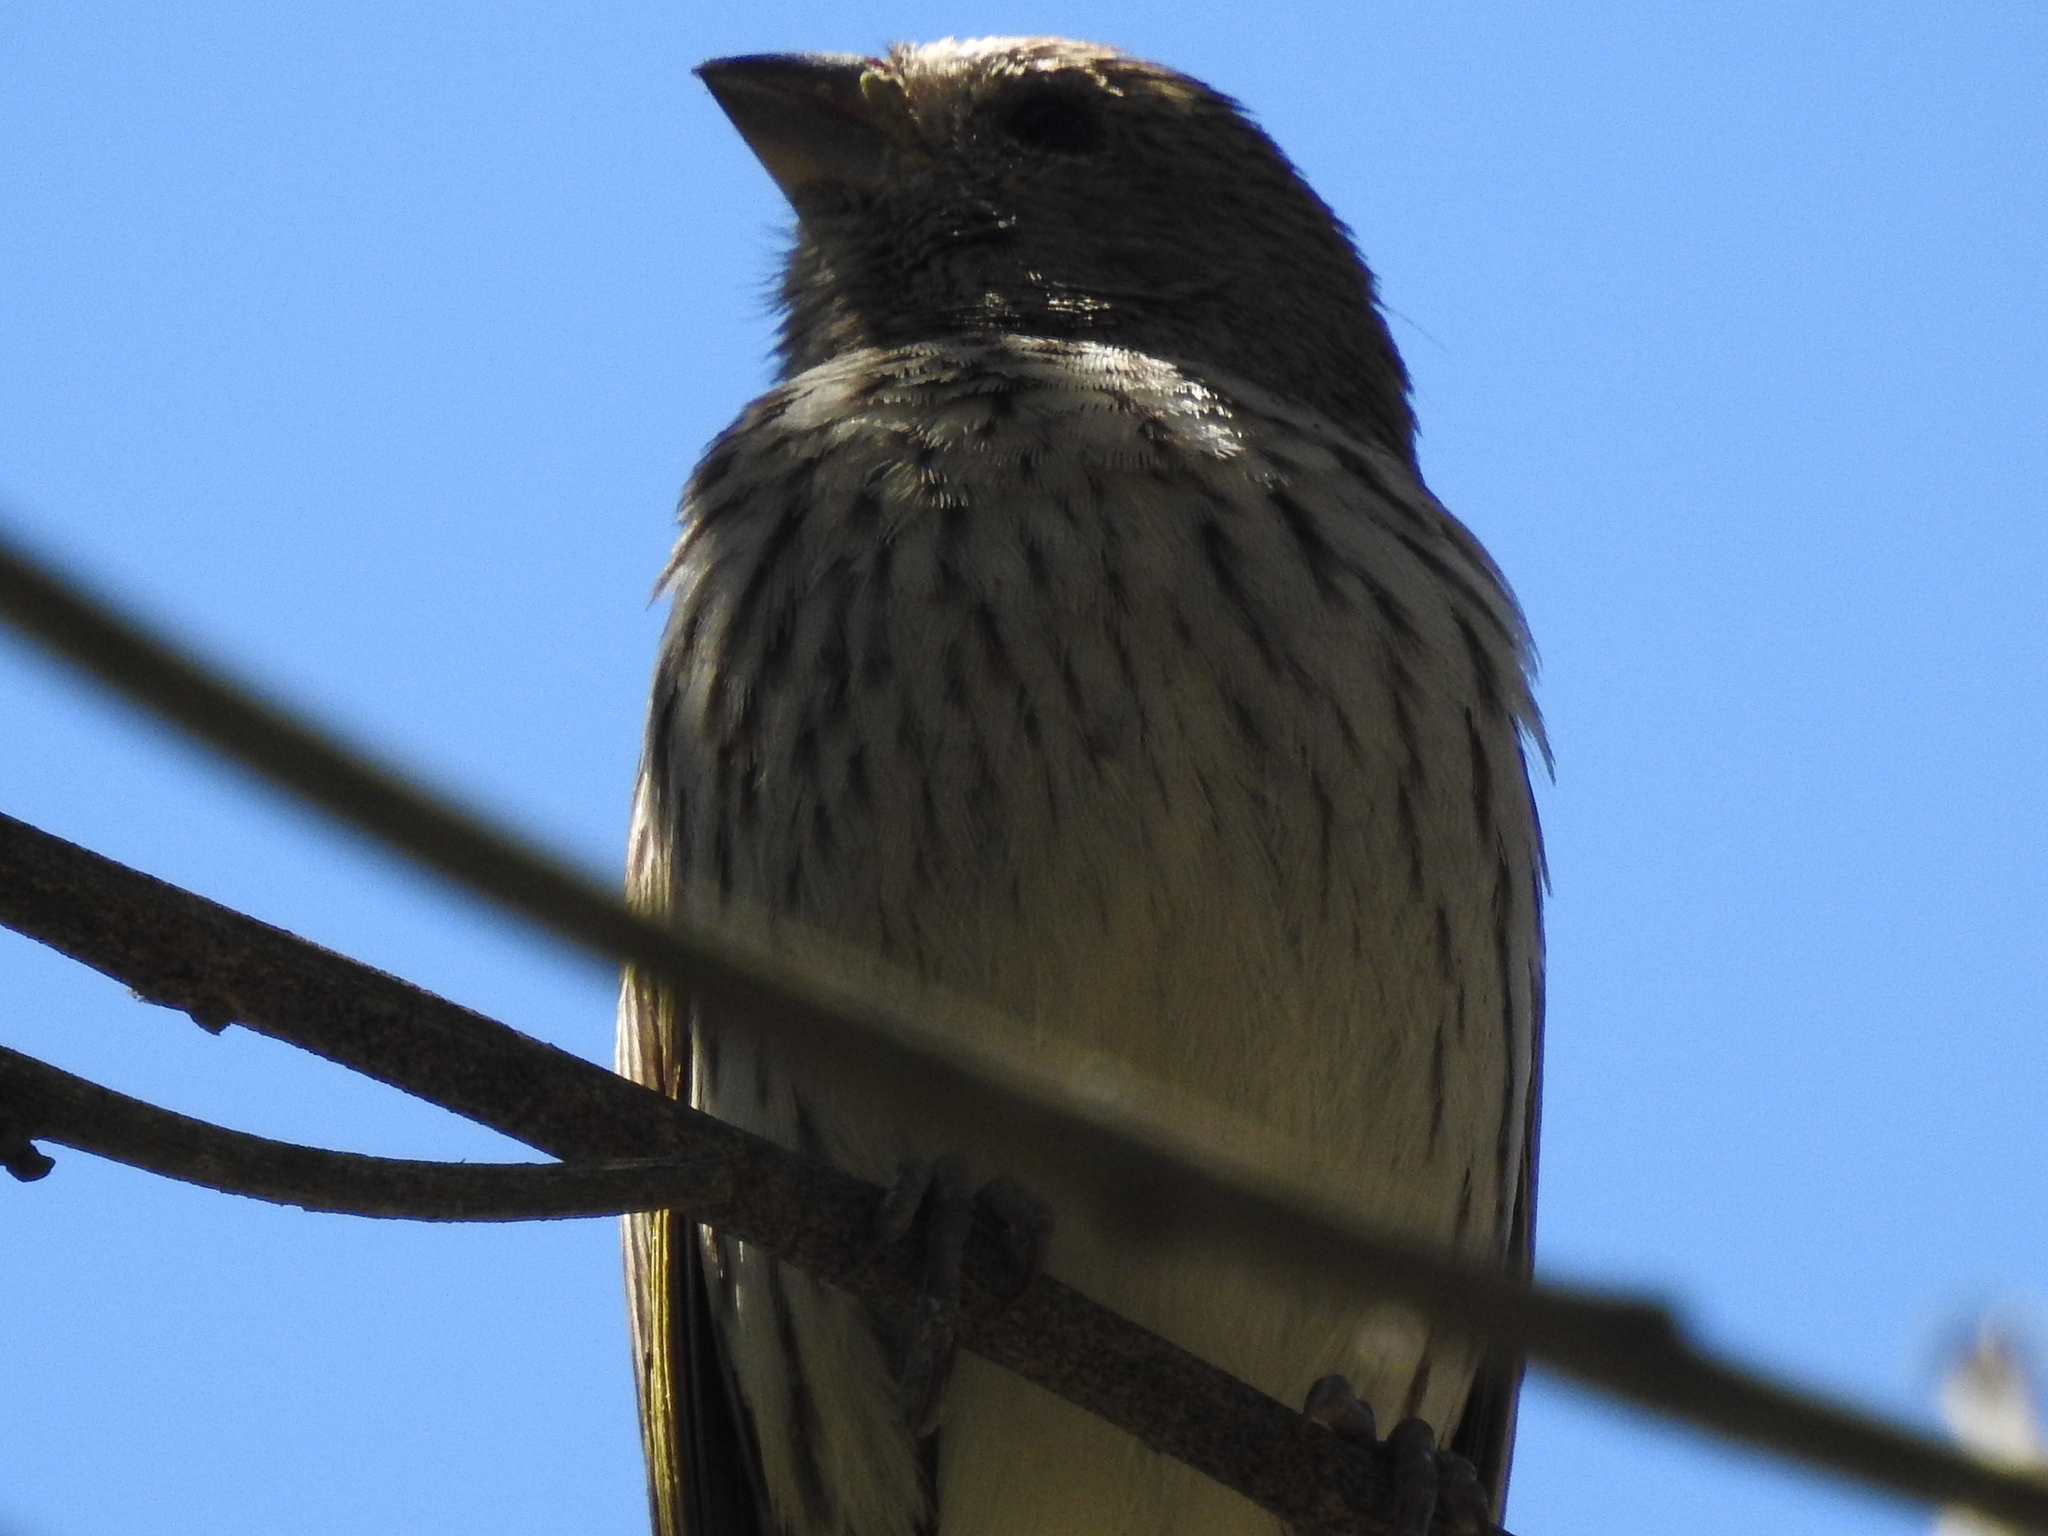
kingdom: Animalia
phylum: Chordata
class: Aves
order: Passeriformes
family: Thraupidae
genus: Sicalis
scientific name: Sicalis flaveola
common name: Saffron finch
